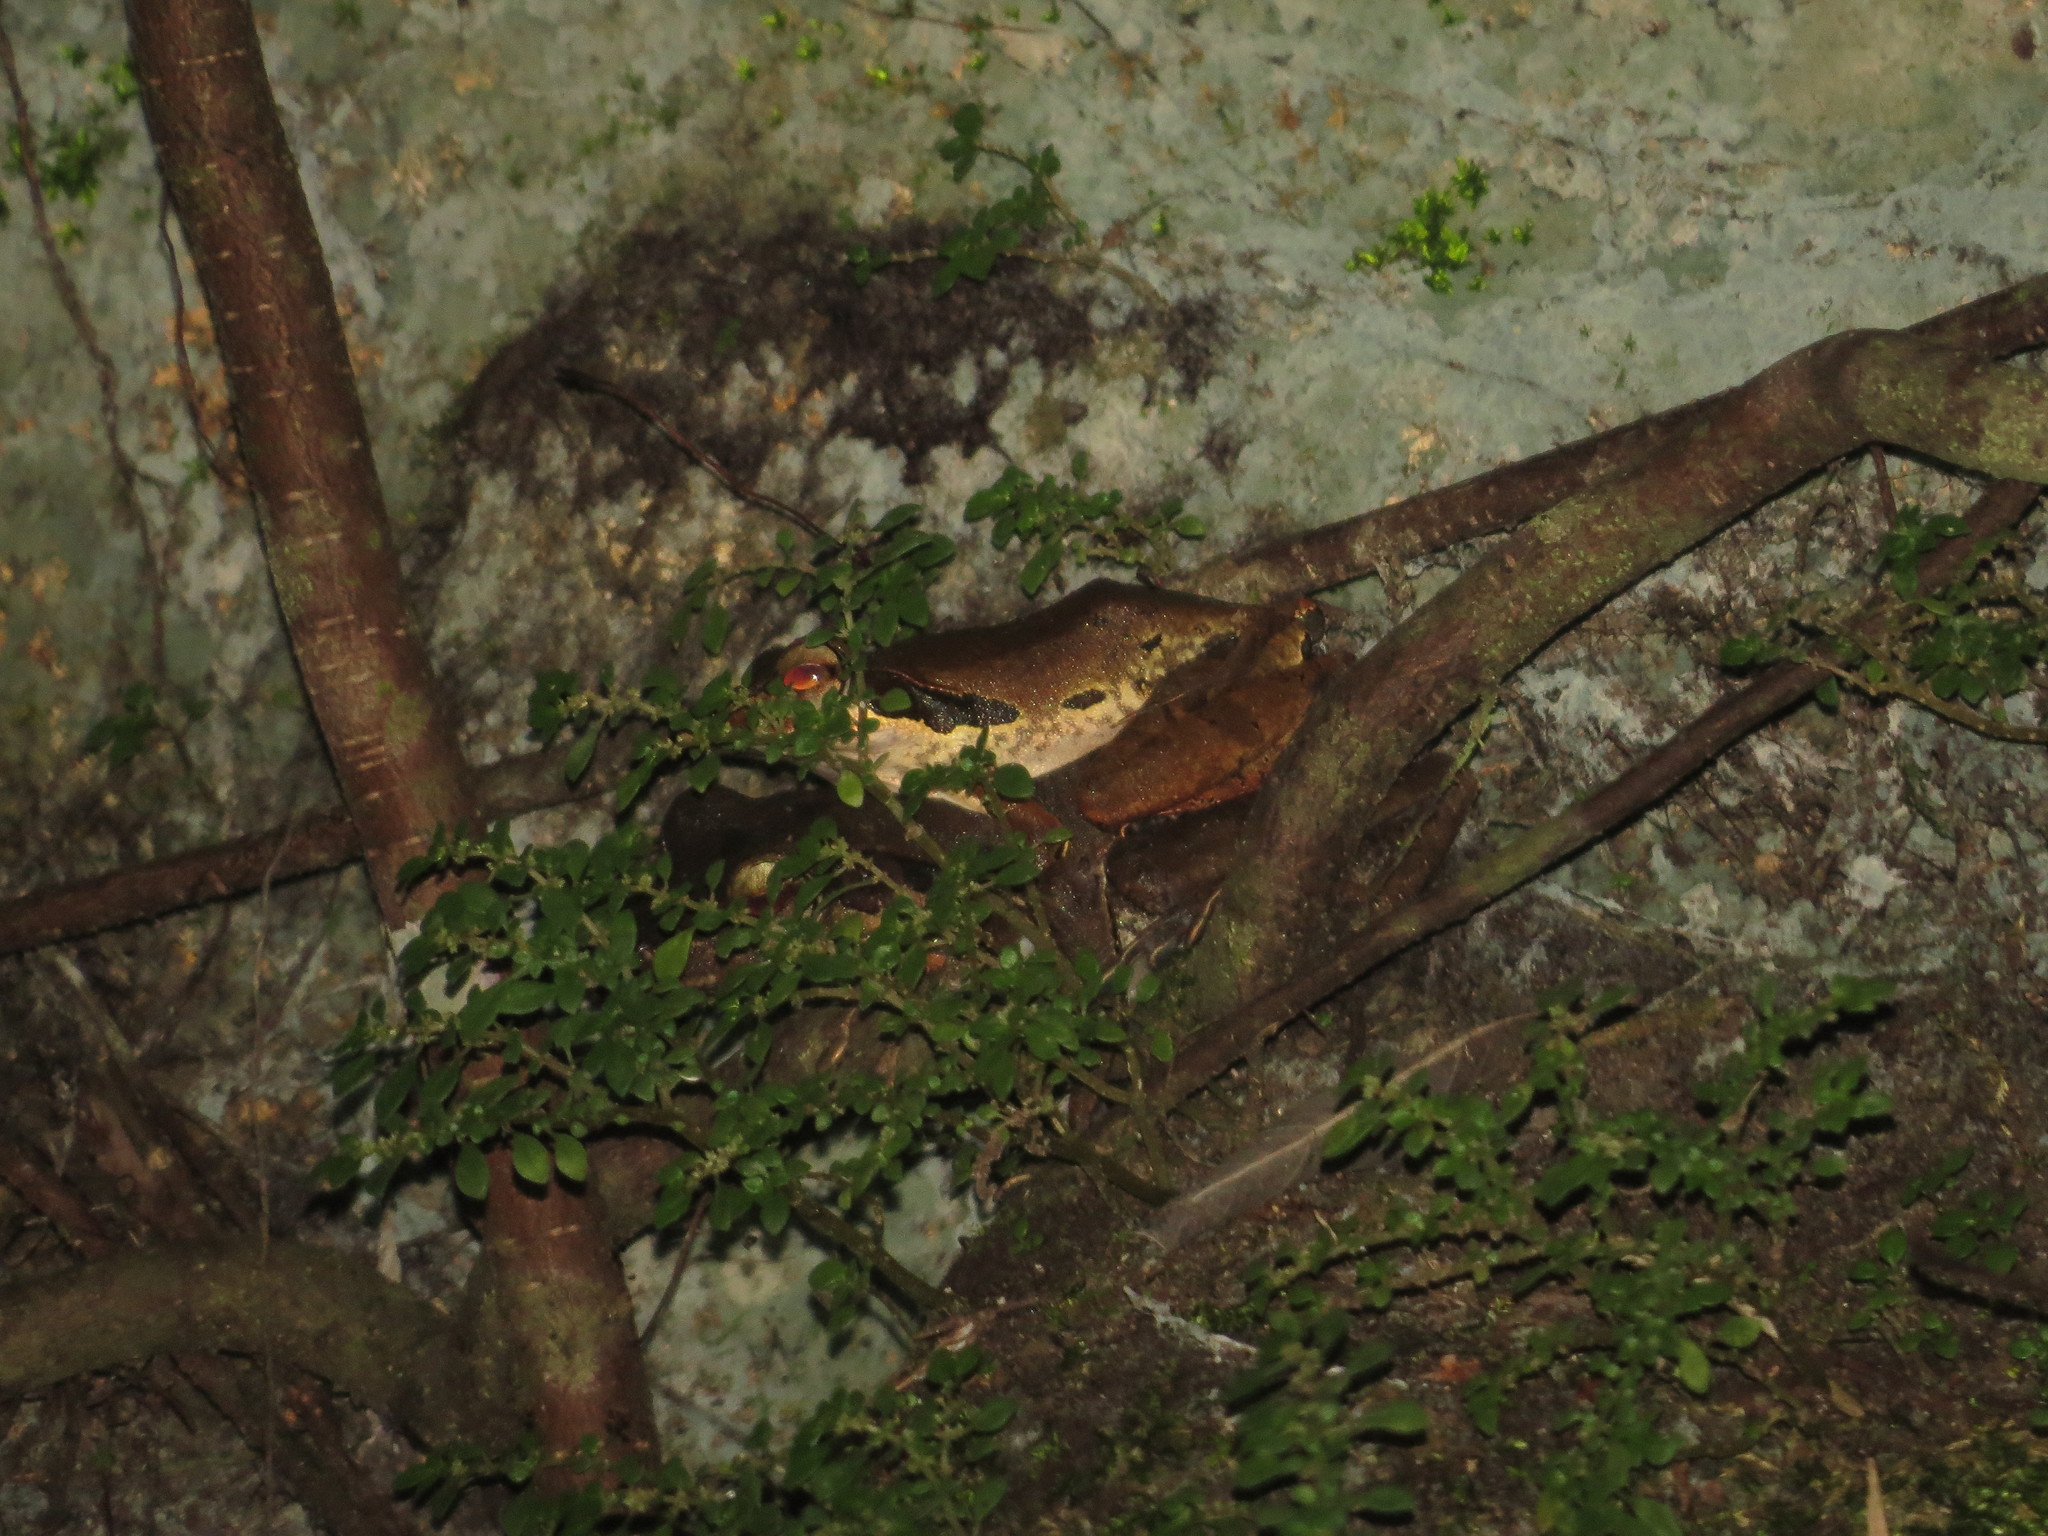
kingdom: Animalia
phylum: Chordata
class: Amphibia
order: Anura
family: Rhacophoridae
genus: Polypedates
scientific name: Polypedates macrotis
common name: Dark-eared tree frog
